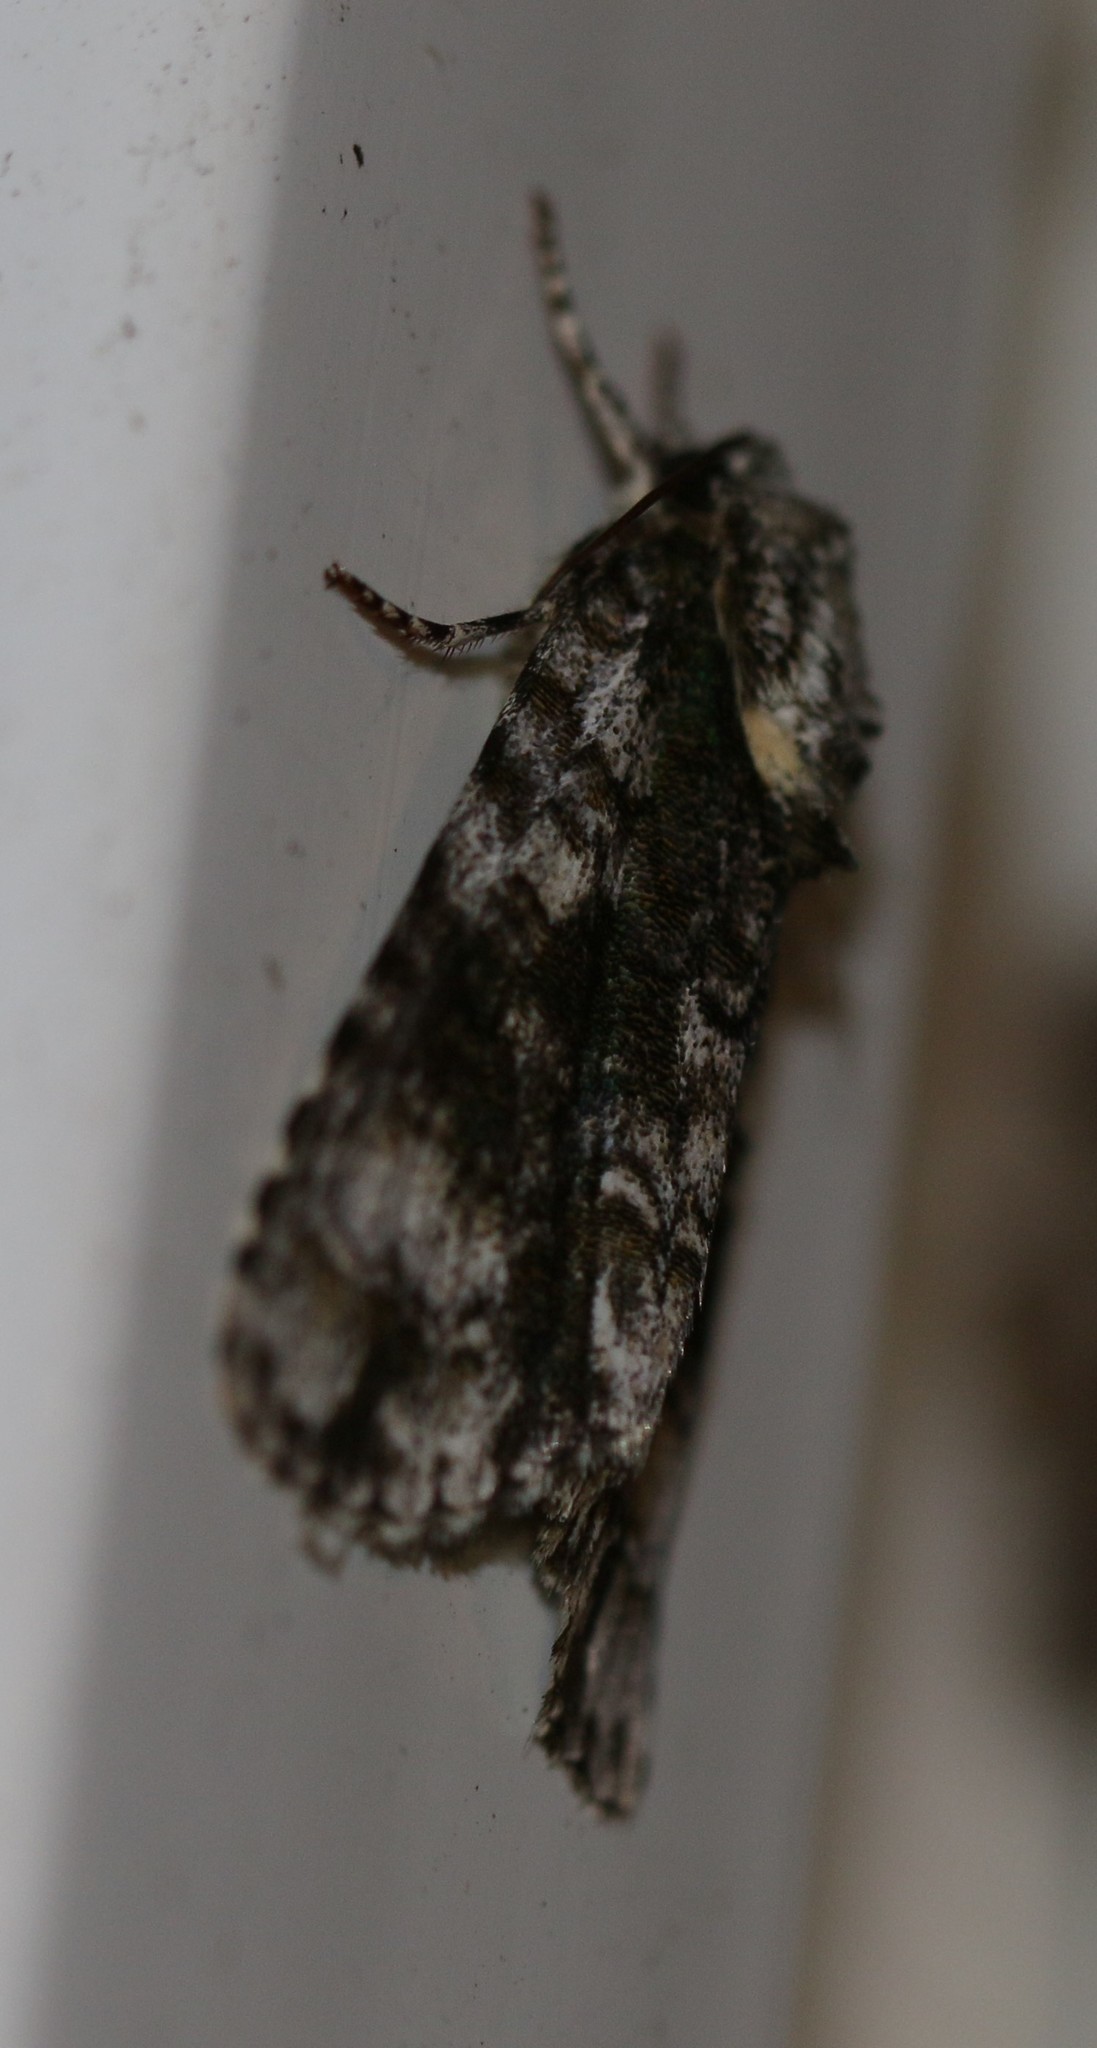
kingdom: Animalia
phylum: Arthropoda
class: Insecta
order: Lepidoptera
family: Noctuidae
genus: Acronicta
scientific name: Acronicta superans
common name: Splendid dagger
